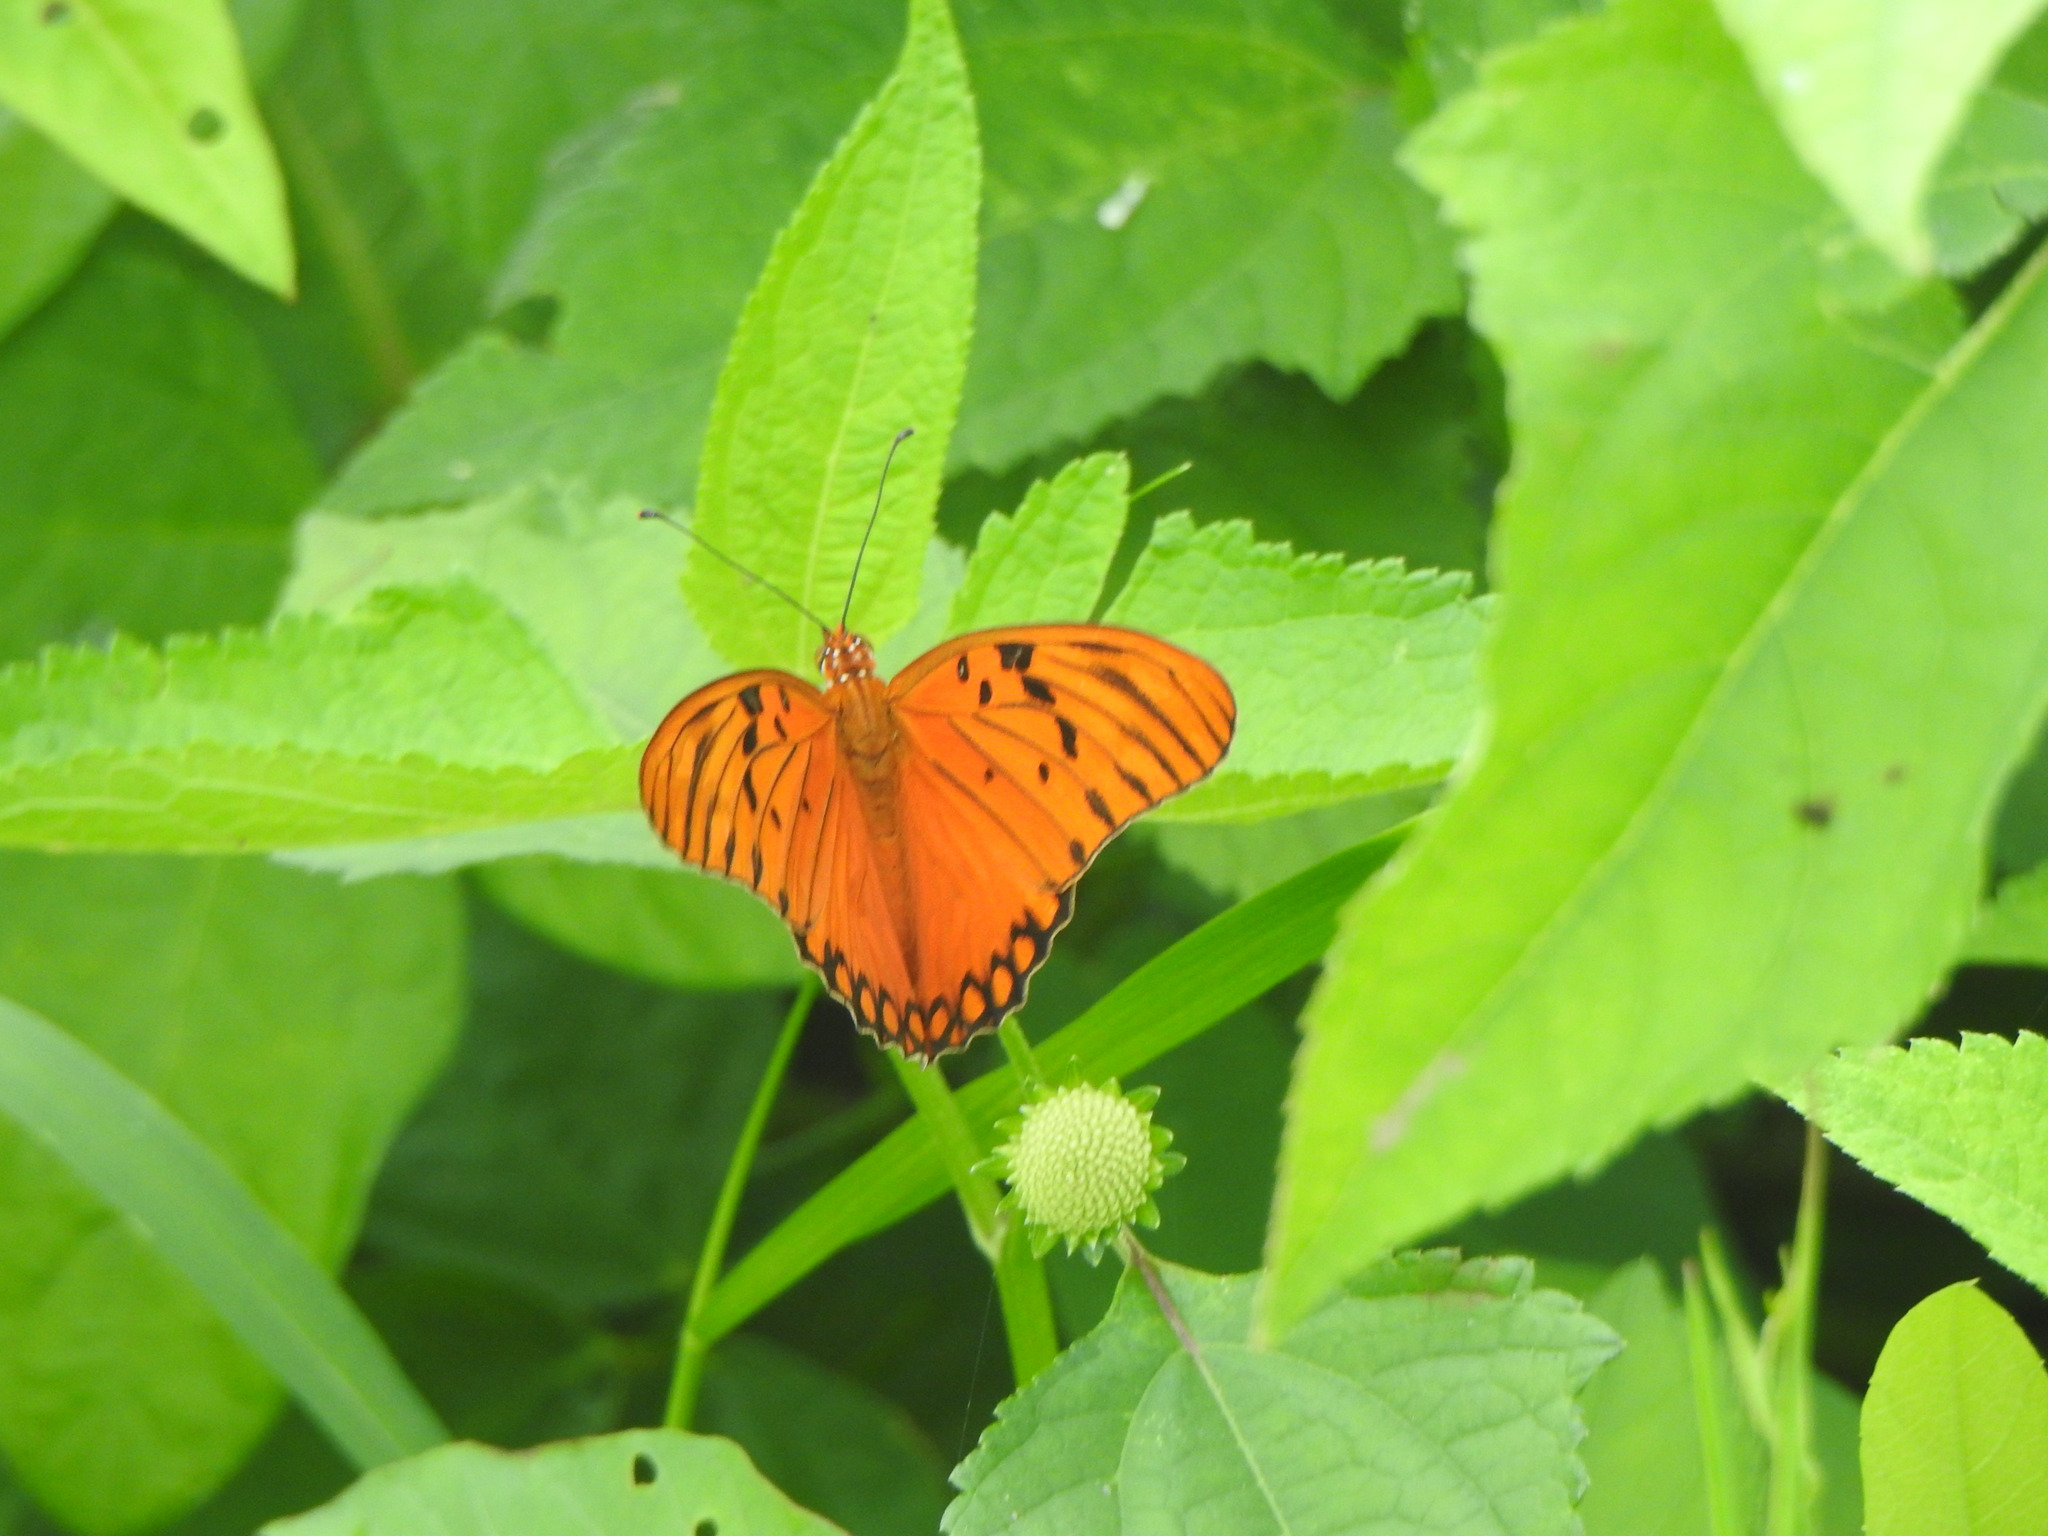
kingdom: Animalia
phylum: Arthropoda
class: Insecta
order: Lepidoptera
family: Nymphalidae
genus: Dione
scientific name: Dione vanillae
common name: Gulf fritillary
